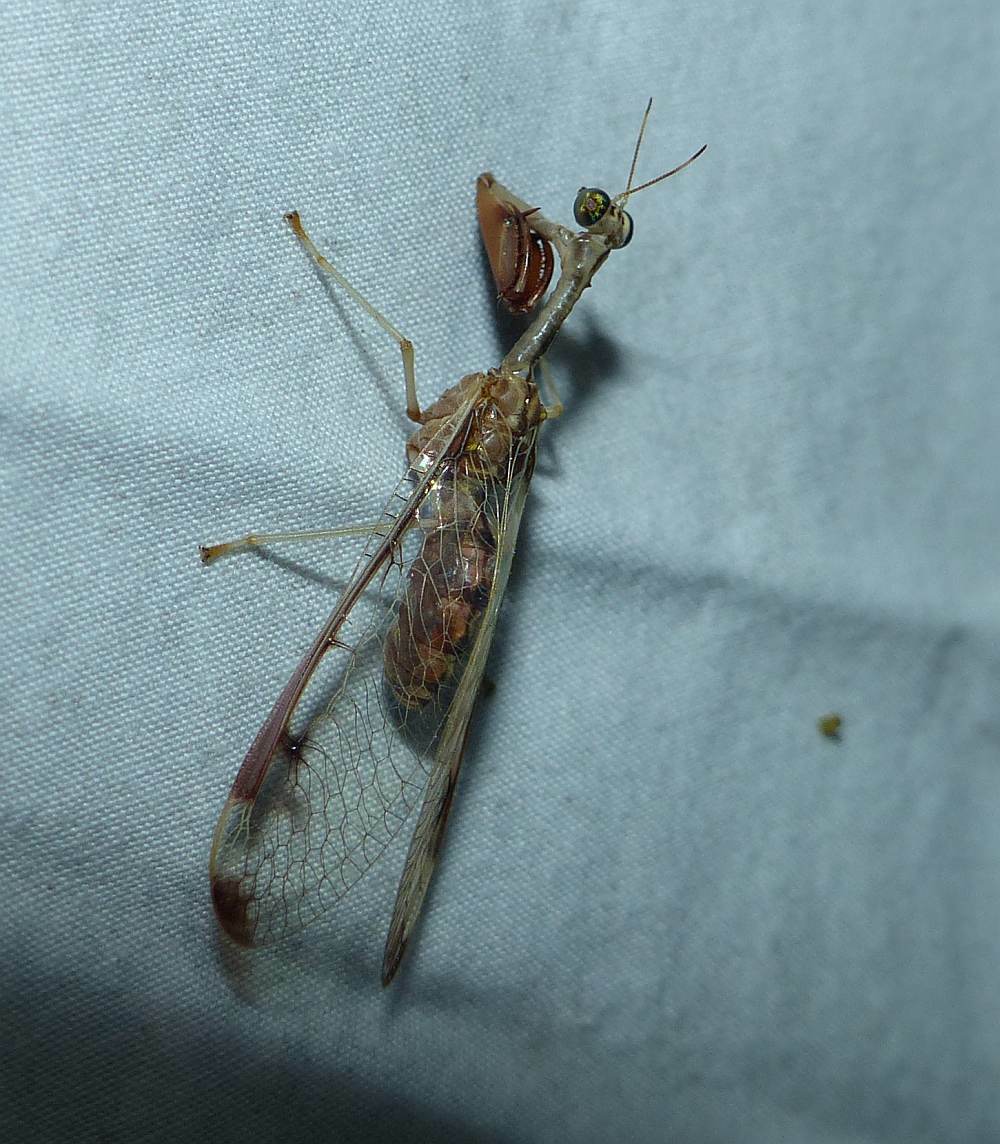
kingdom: Animalia
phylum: Arthropoda
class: Insecta
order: Neuroptera
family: Mantispidae
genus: Dicromantispa
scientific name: Dicromantispa interrupta
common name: Four-spotted mantidfly
